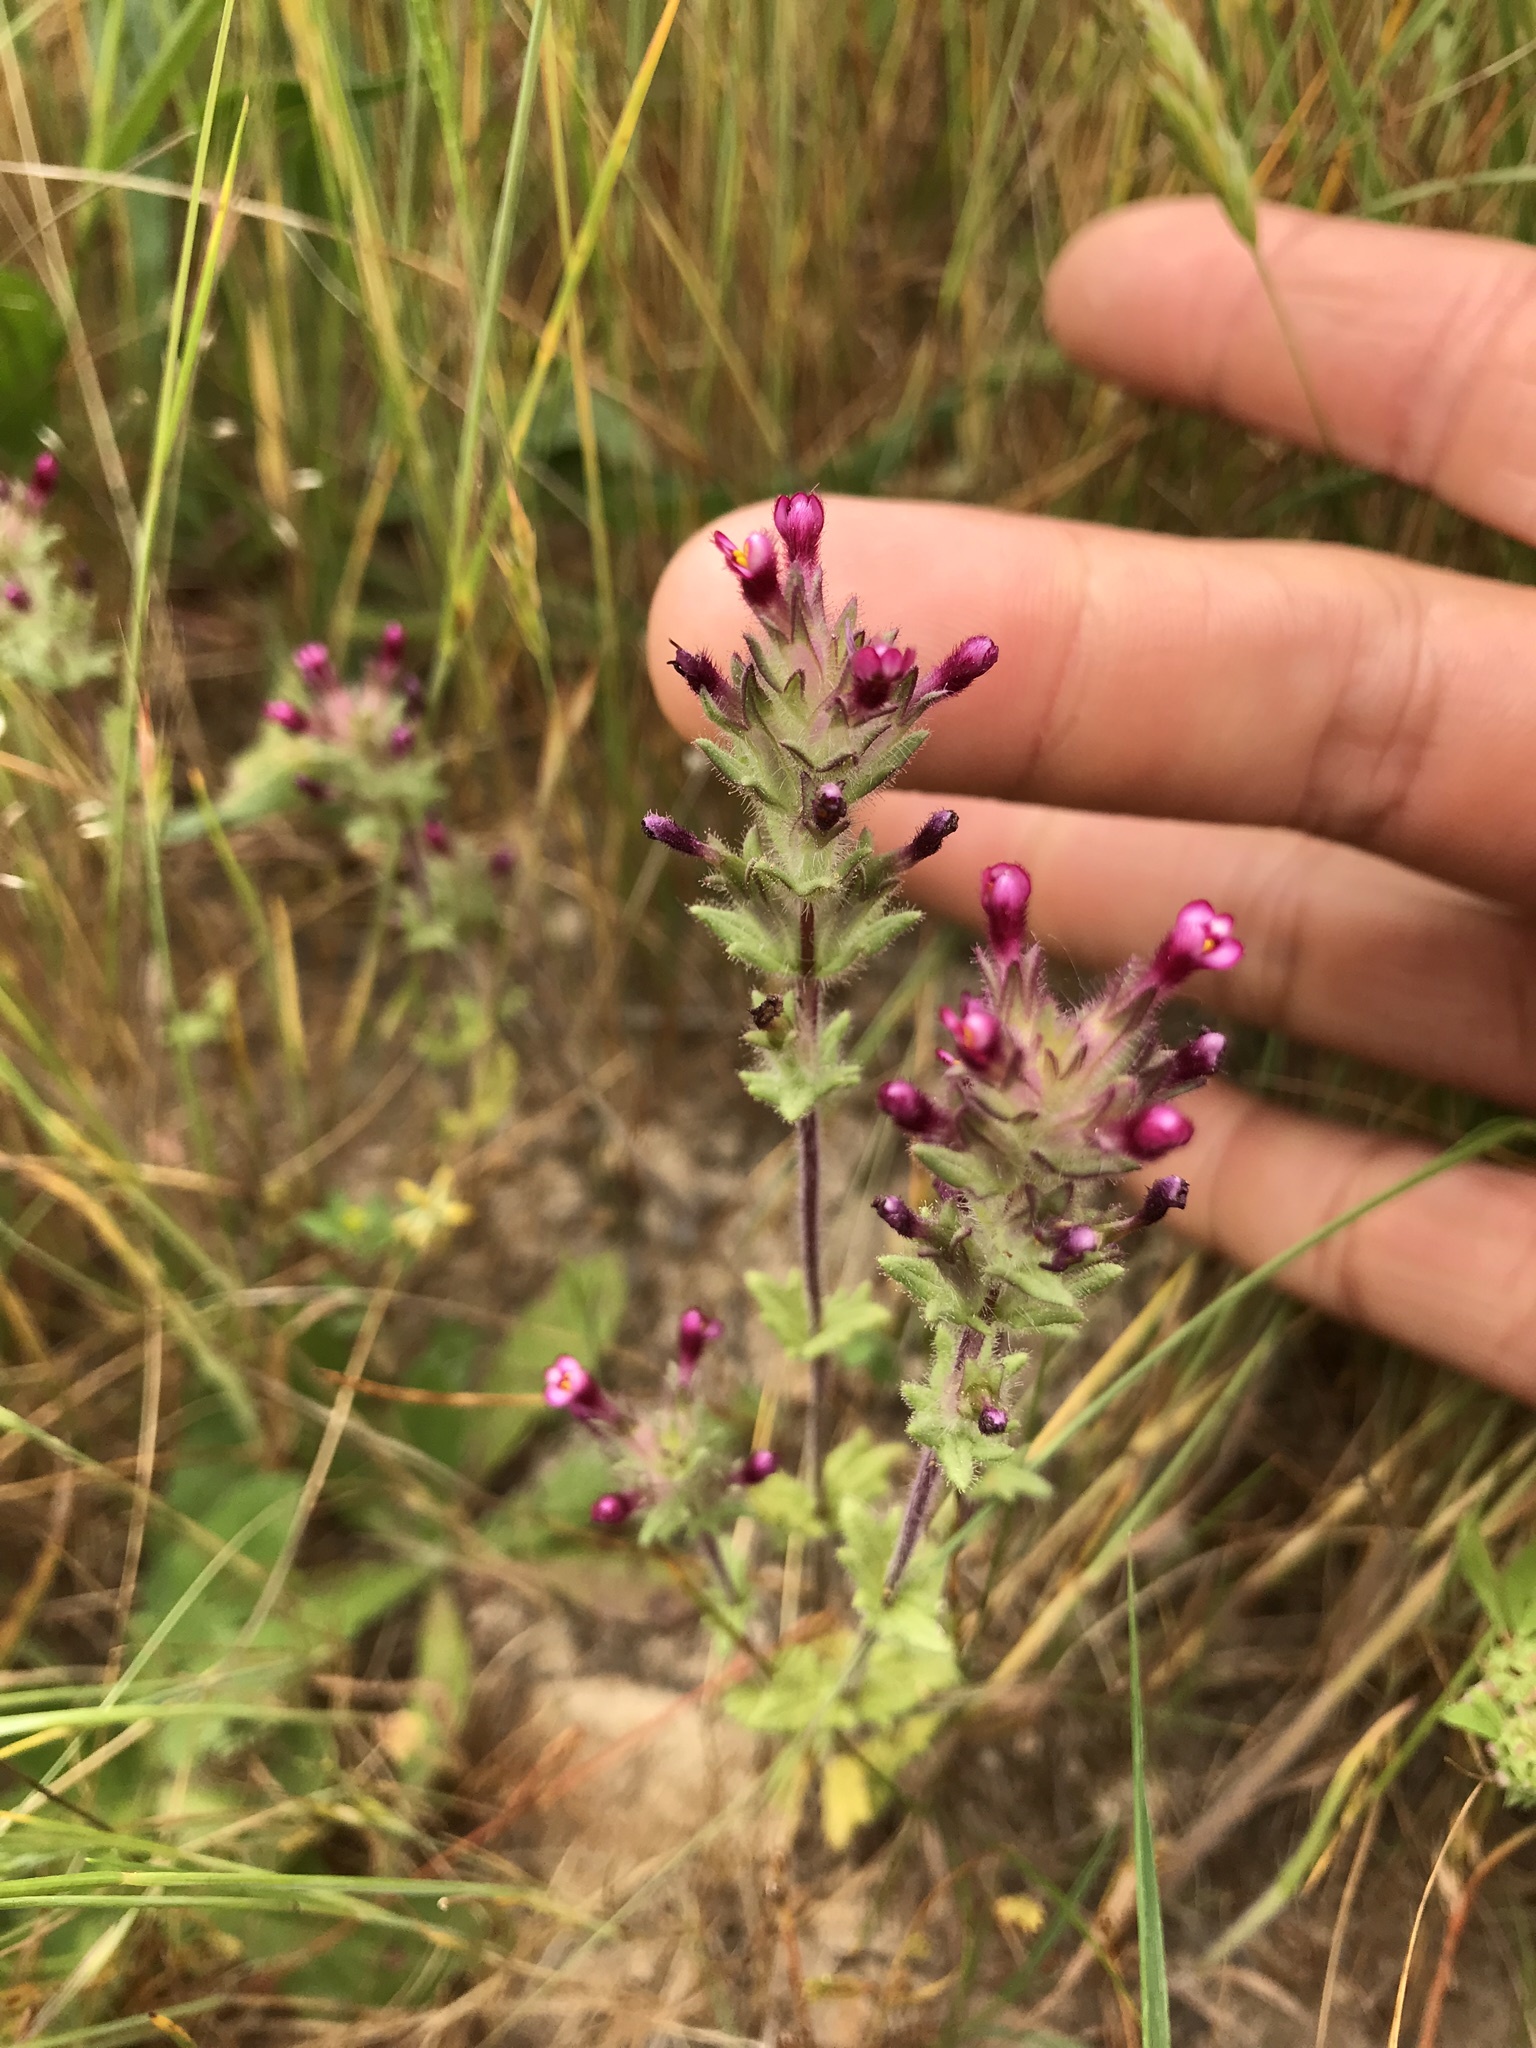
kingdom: Plantae
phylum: Tracheophyta
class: Magnoliopsida
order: Lamiales
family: Orobanchaceae
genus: Parentucellia
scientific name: Parentucellia latifolia
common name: Broadleaf glandweed
